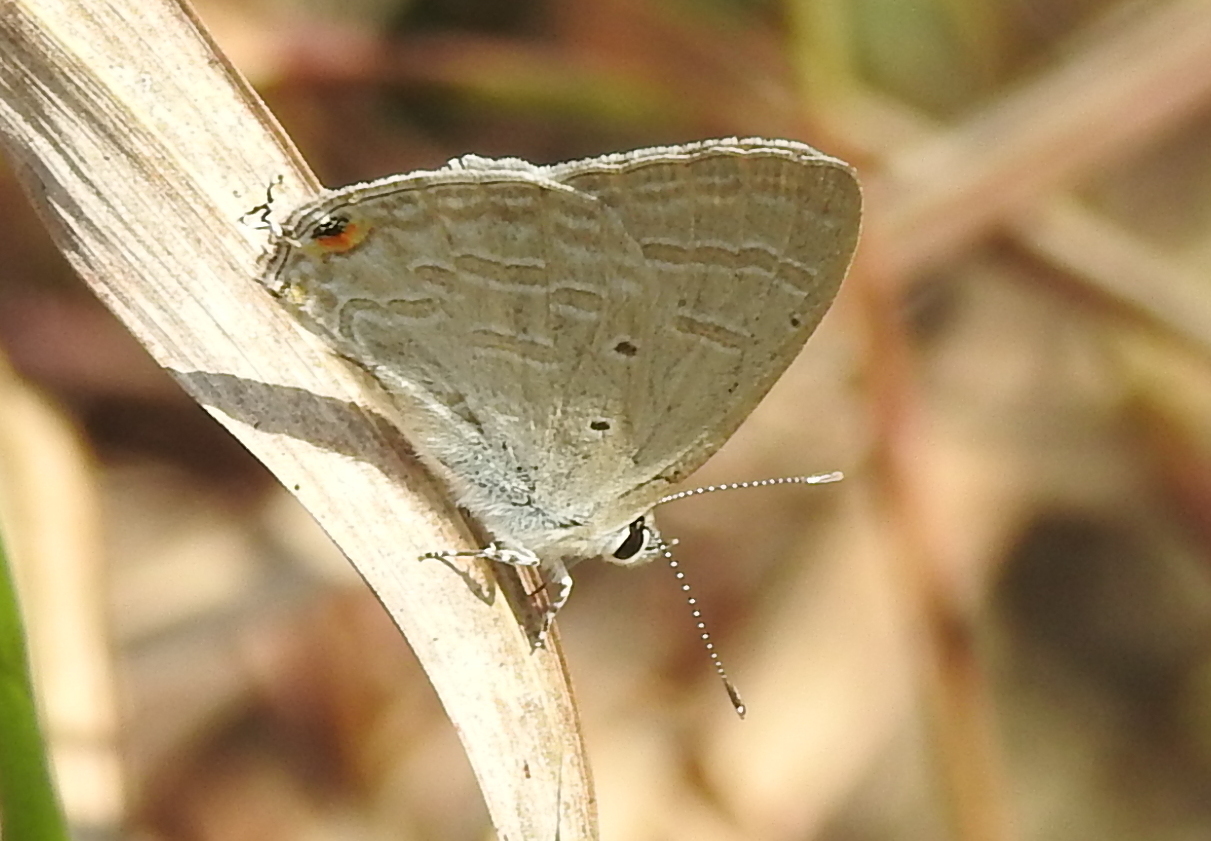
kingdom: Animalia
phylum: Arthropoda
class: Insecta
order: Lepidoptera
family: Lycaenidae
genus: Catochrysops
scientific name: Catochrysops strabo
